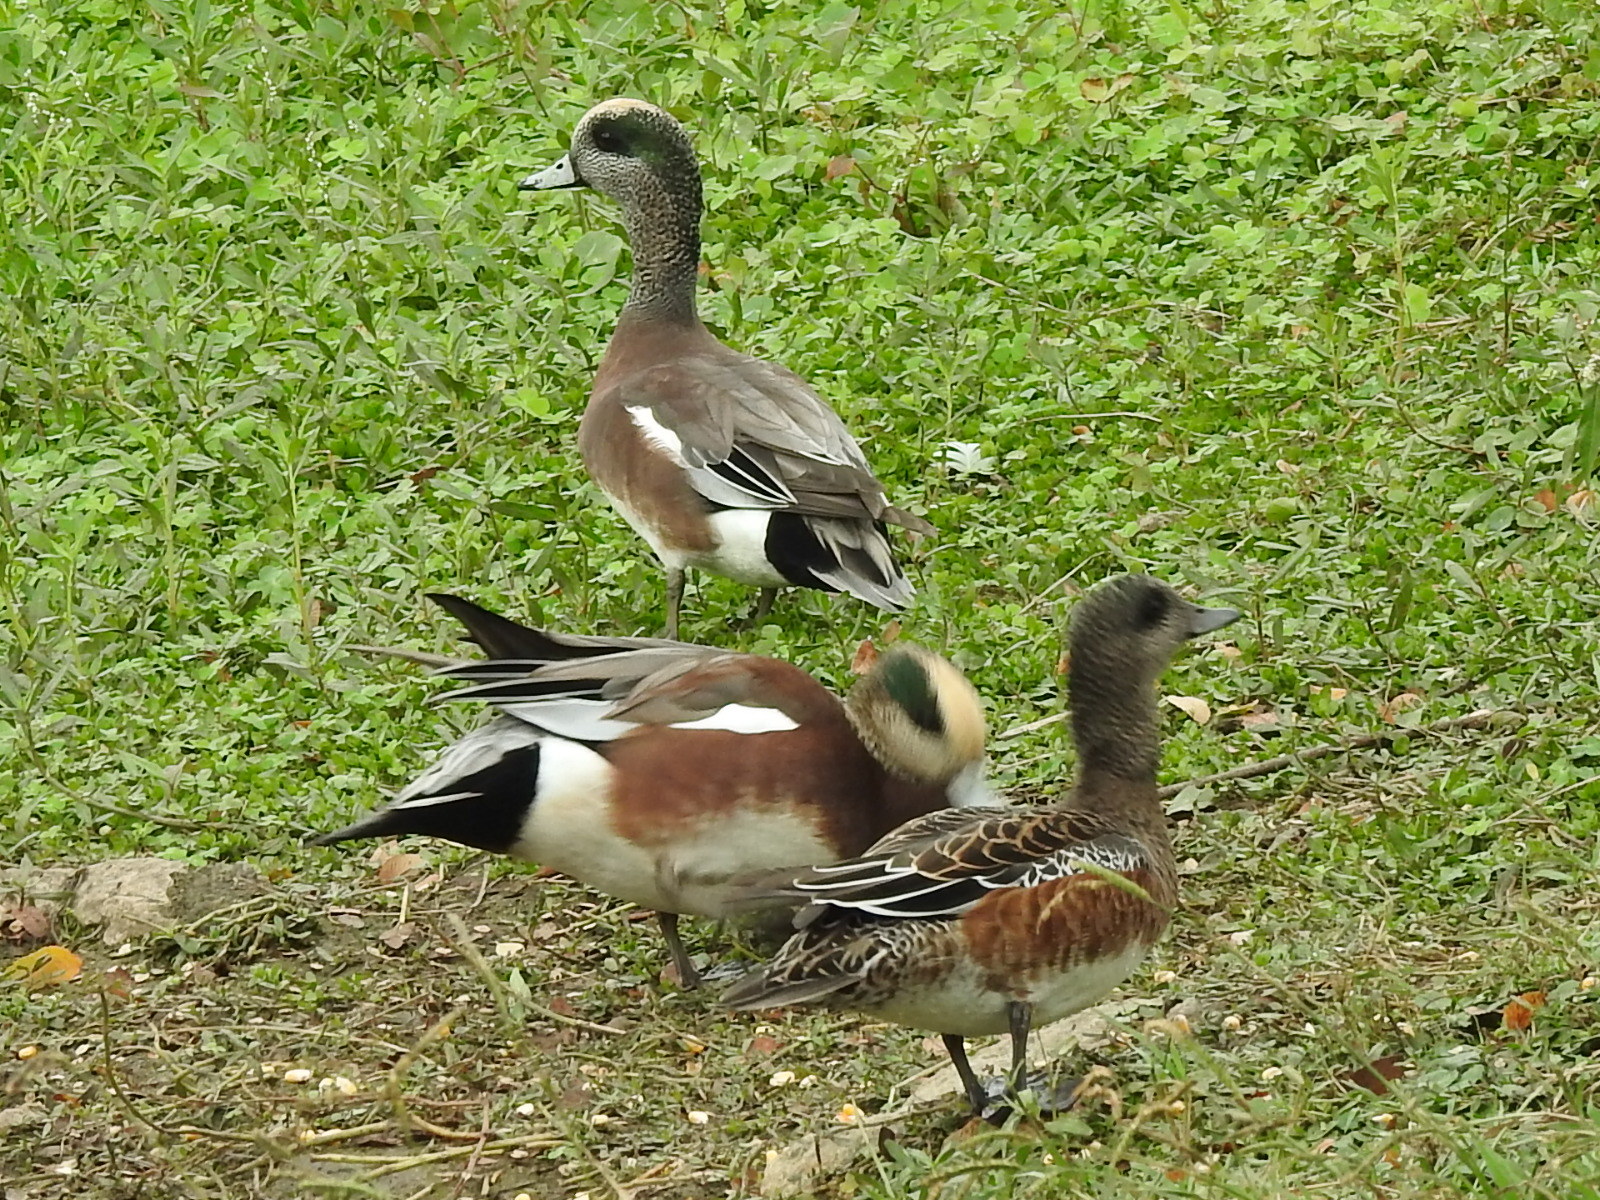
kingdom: Animalia
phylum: Chordata
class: Aves
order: Anseriformes
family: Anatidae
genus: Mareca
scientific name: Mareca americana
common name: American wigeon
